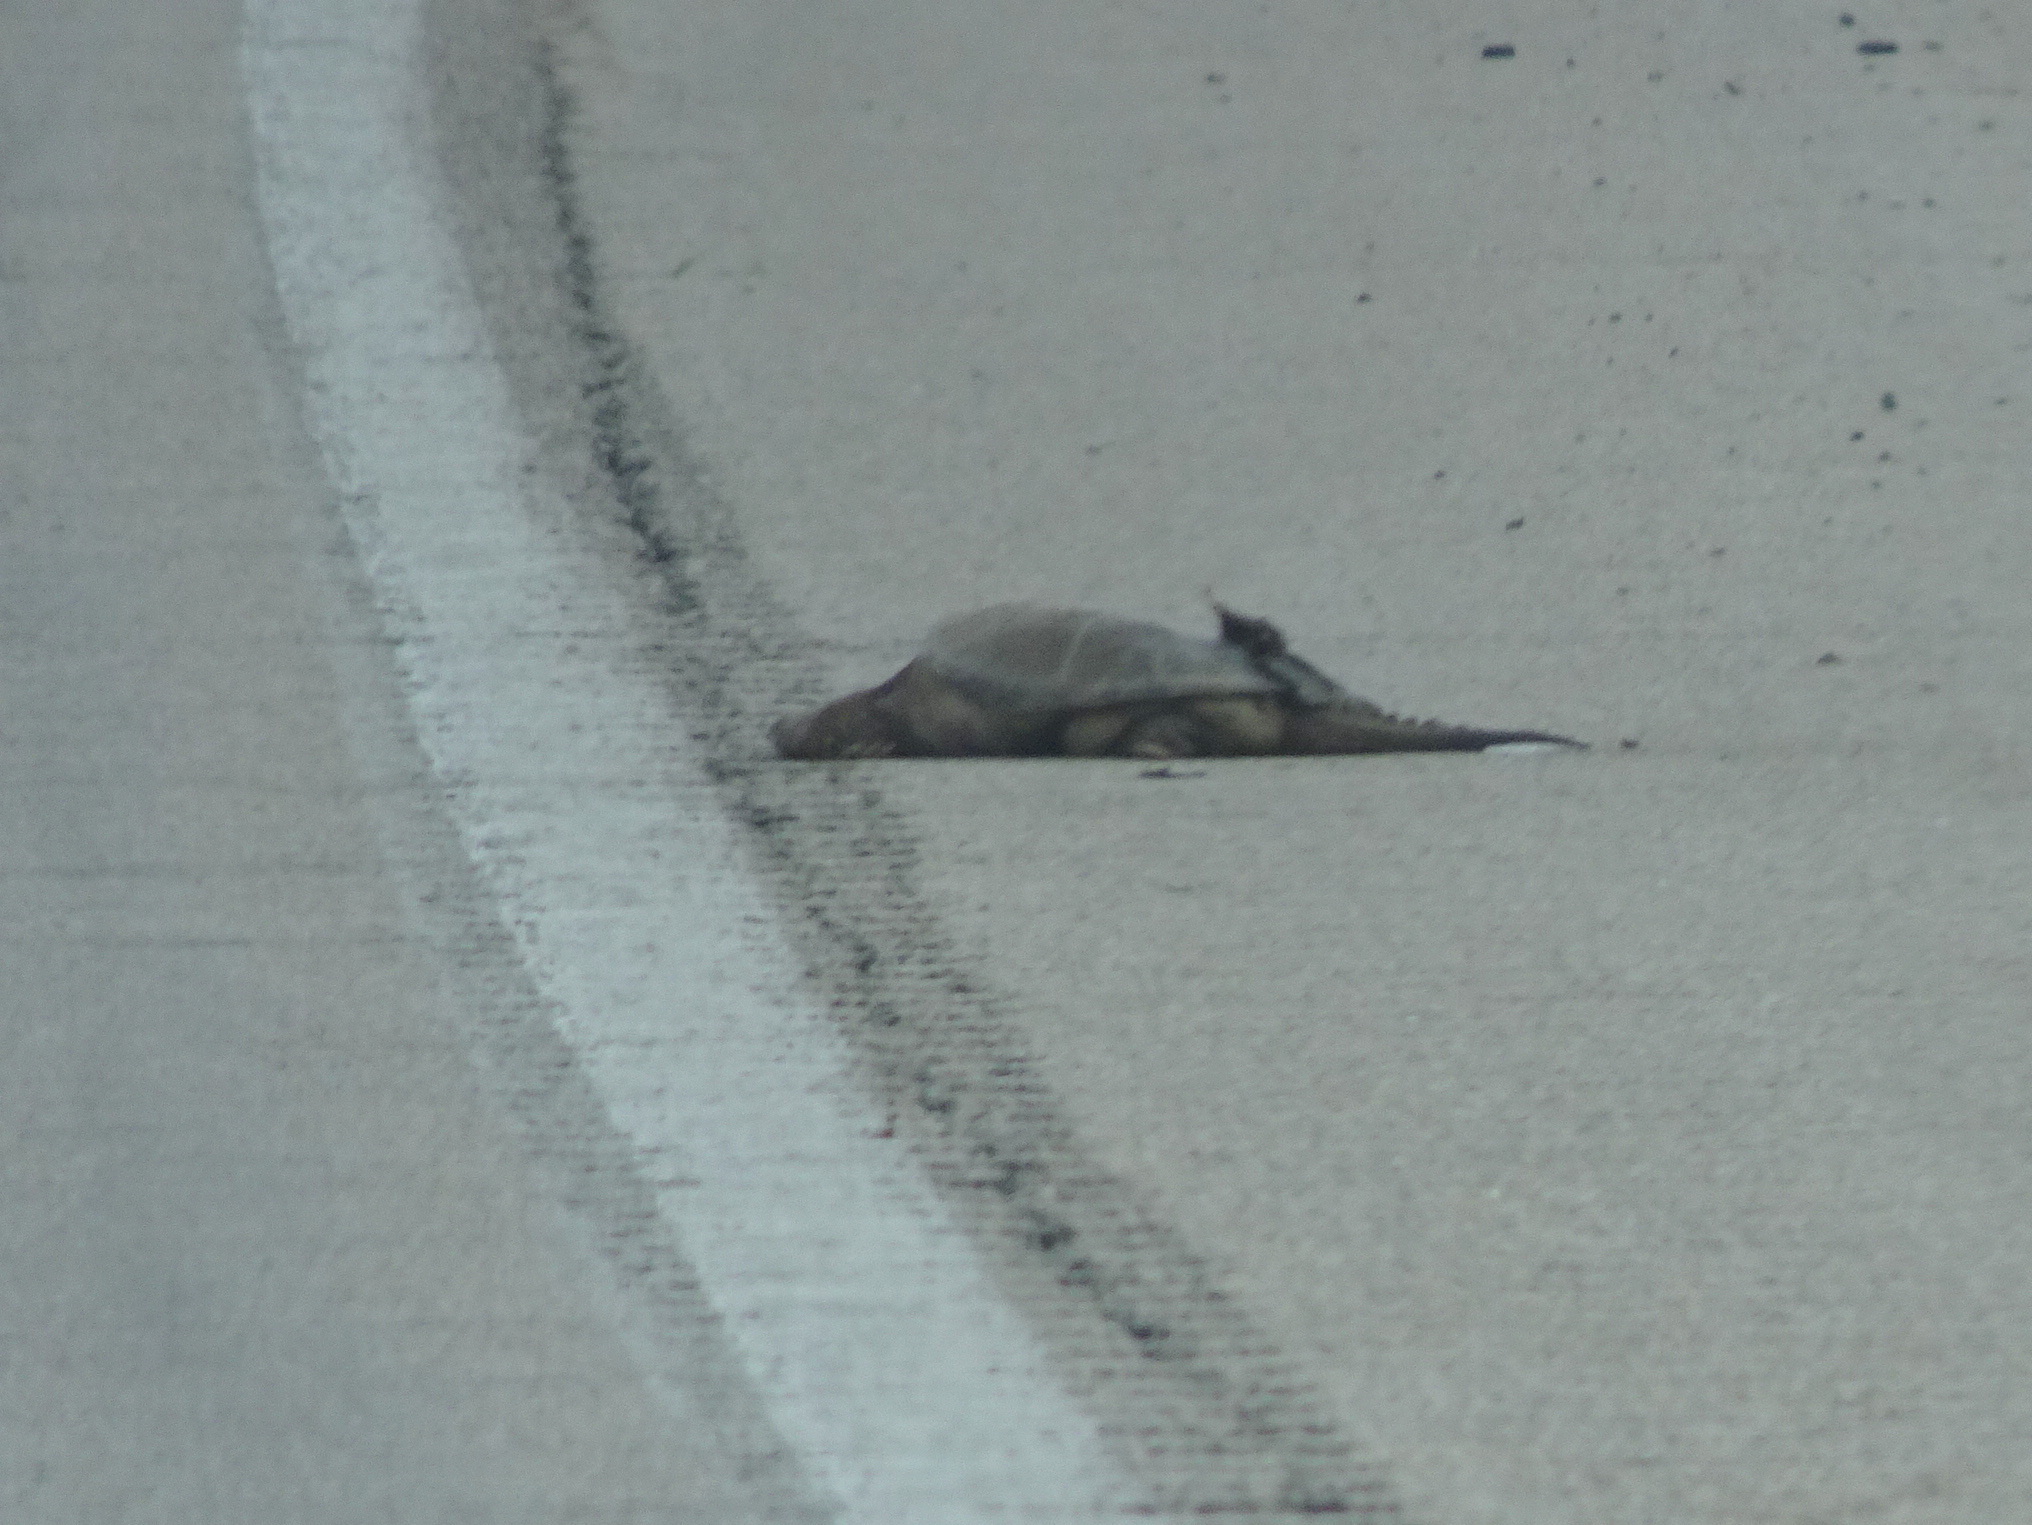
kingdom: Animalia
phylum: Chordata
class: Testudines
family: Chelydridae
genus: Chelydra
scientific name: Chelydra serpentina
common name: Common snapping turtle
